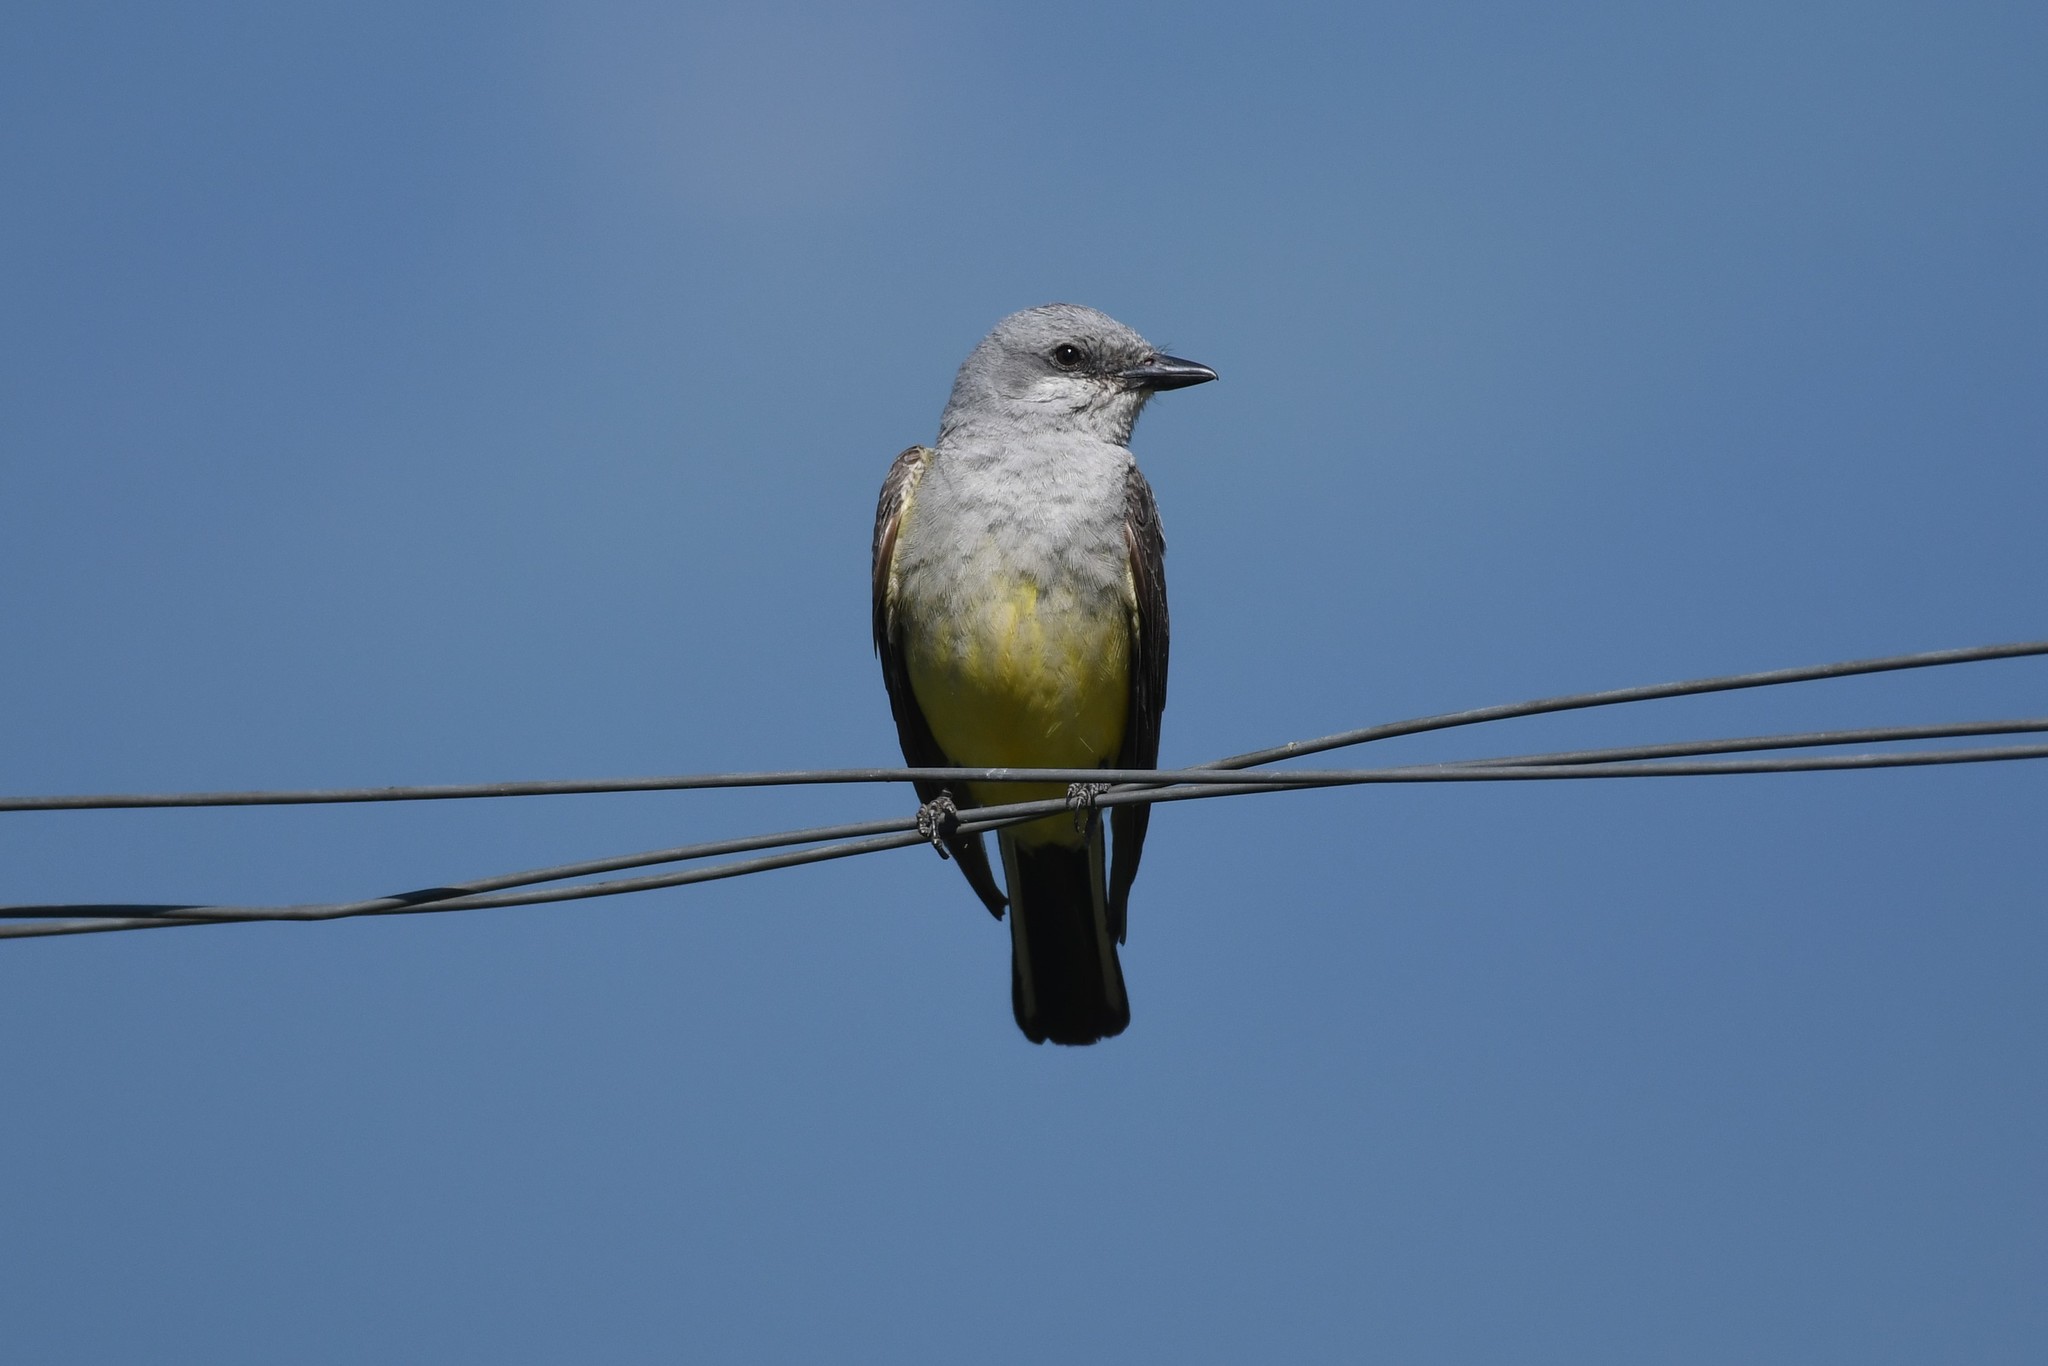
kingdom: Animalia
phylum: Chordata
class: Aves
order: Passeriformes
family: Tyrannidae
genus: Tyrannus
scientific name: Tyrannus verticalis
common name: Western kingbird
